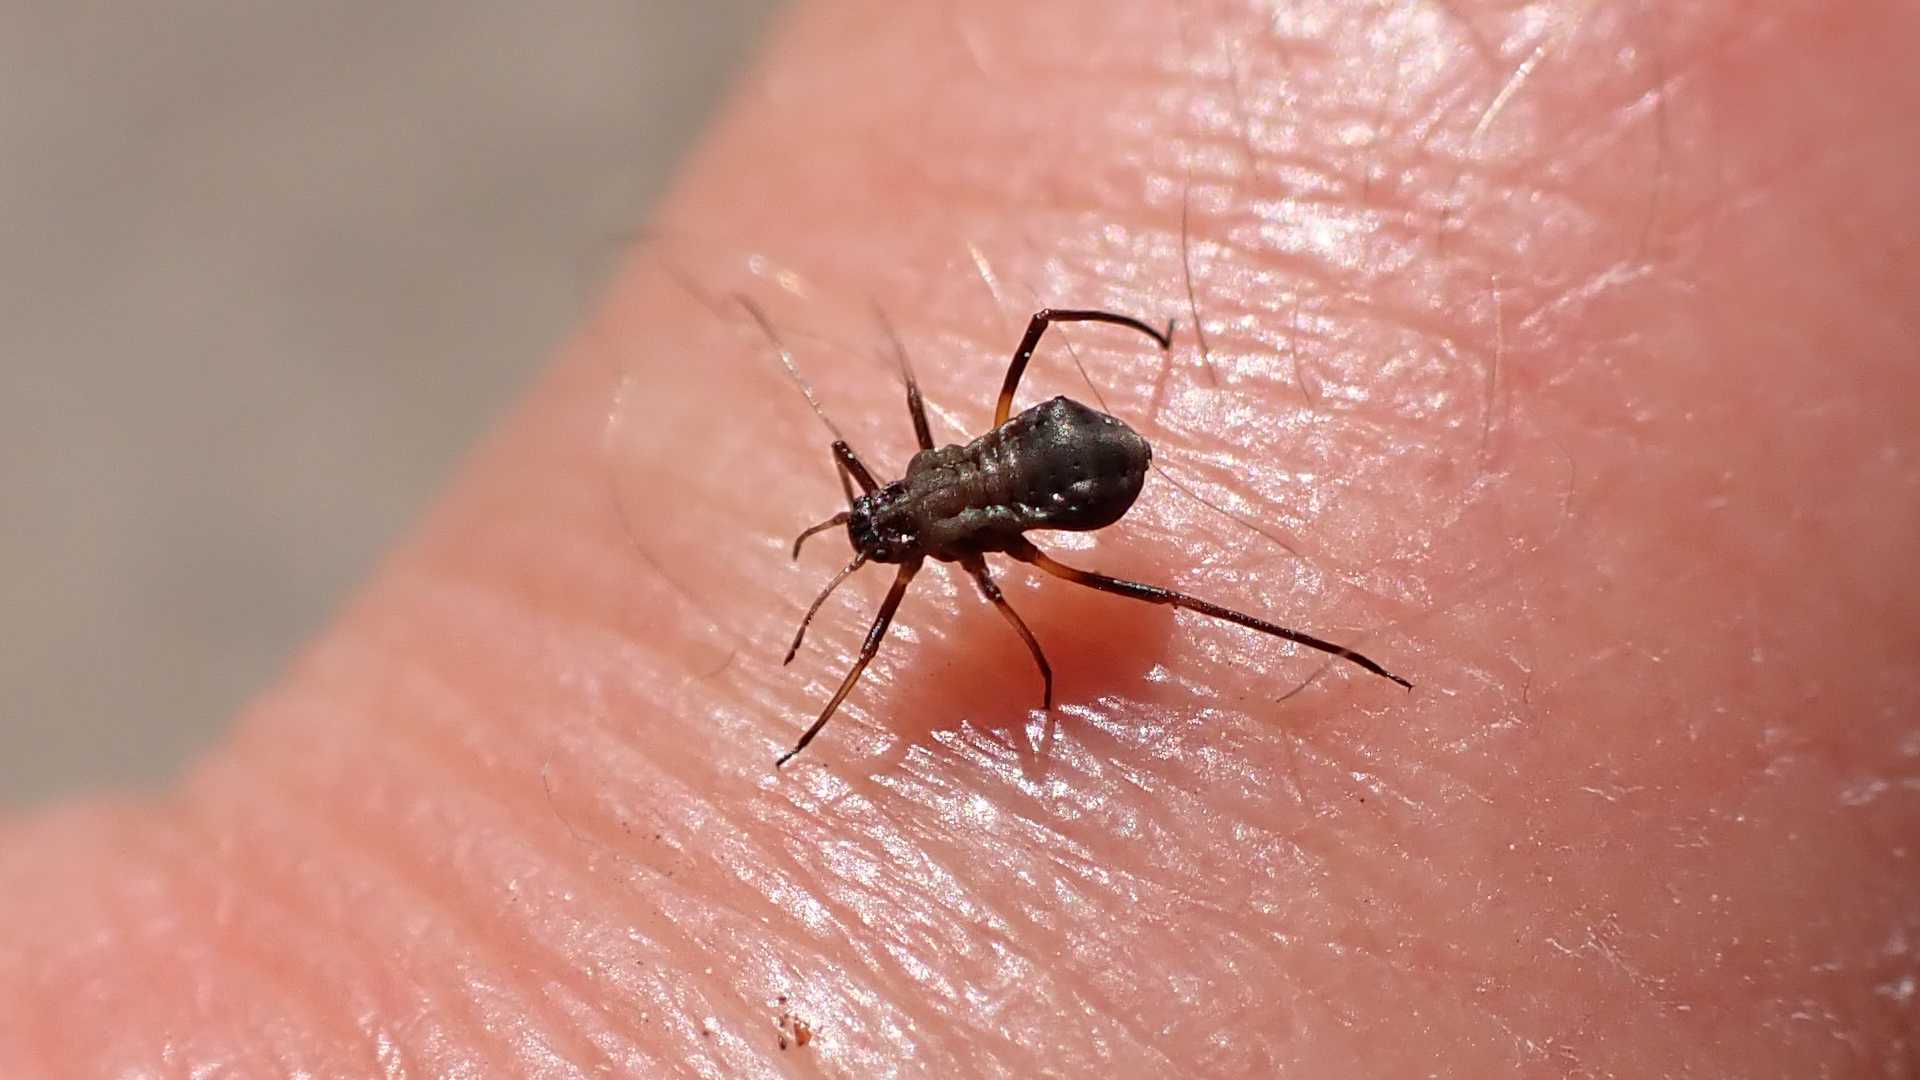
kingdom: Animalia
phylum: Arthropoda
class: Insecta
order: Hemiptera
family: Aphididae
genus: Lachnus
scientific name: Lachnus roboris
